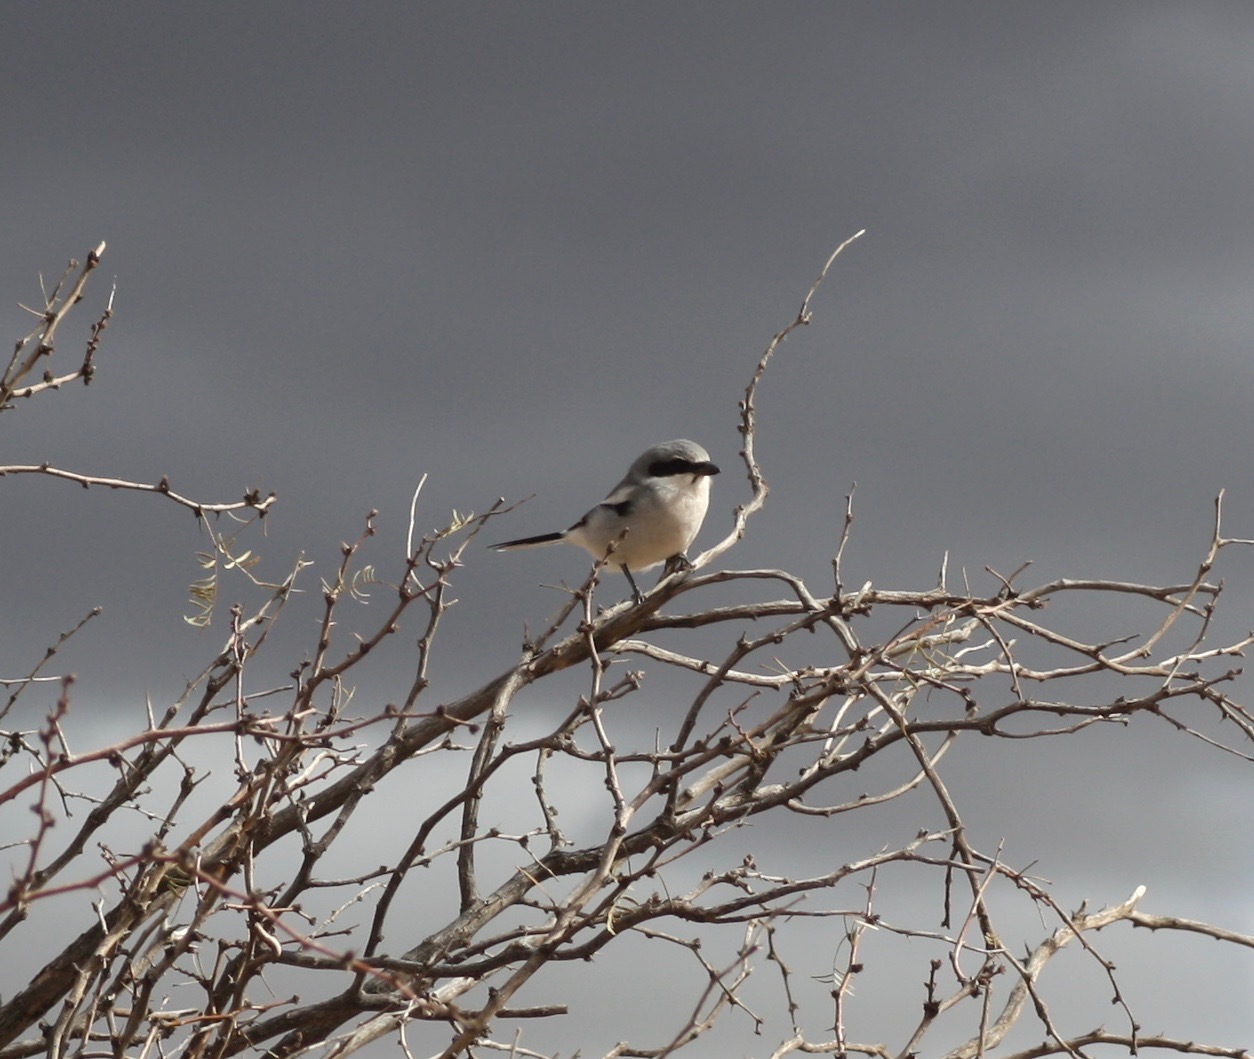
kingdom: Animalia
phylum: Chordata
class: Aves
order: Passeriformes
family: Laniidae
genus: Lanius
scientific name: Lanius ludovicianus
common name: Loggerhead shrike
